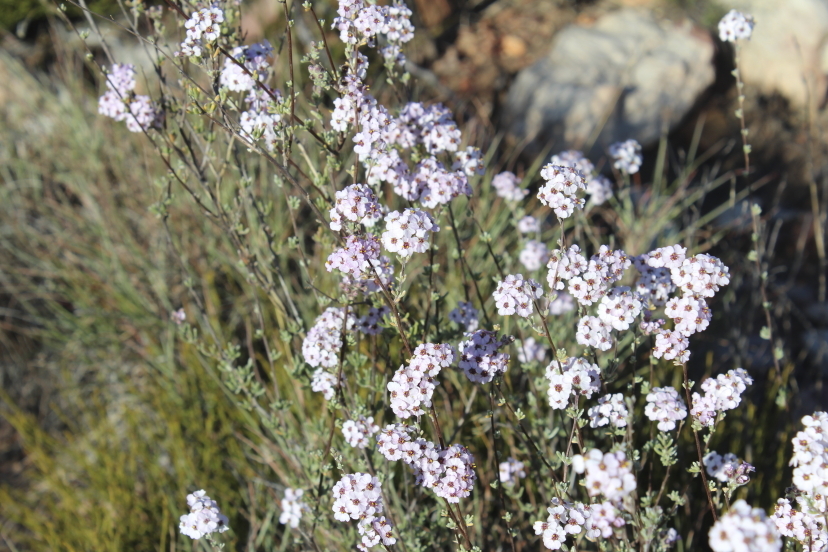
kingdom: Plantae
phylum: Tracheophyta
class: Magnoliopsida
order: Asterales
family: Asteraceae
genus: Eriocephalus
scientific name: Eriocephalus africanus
